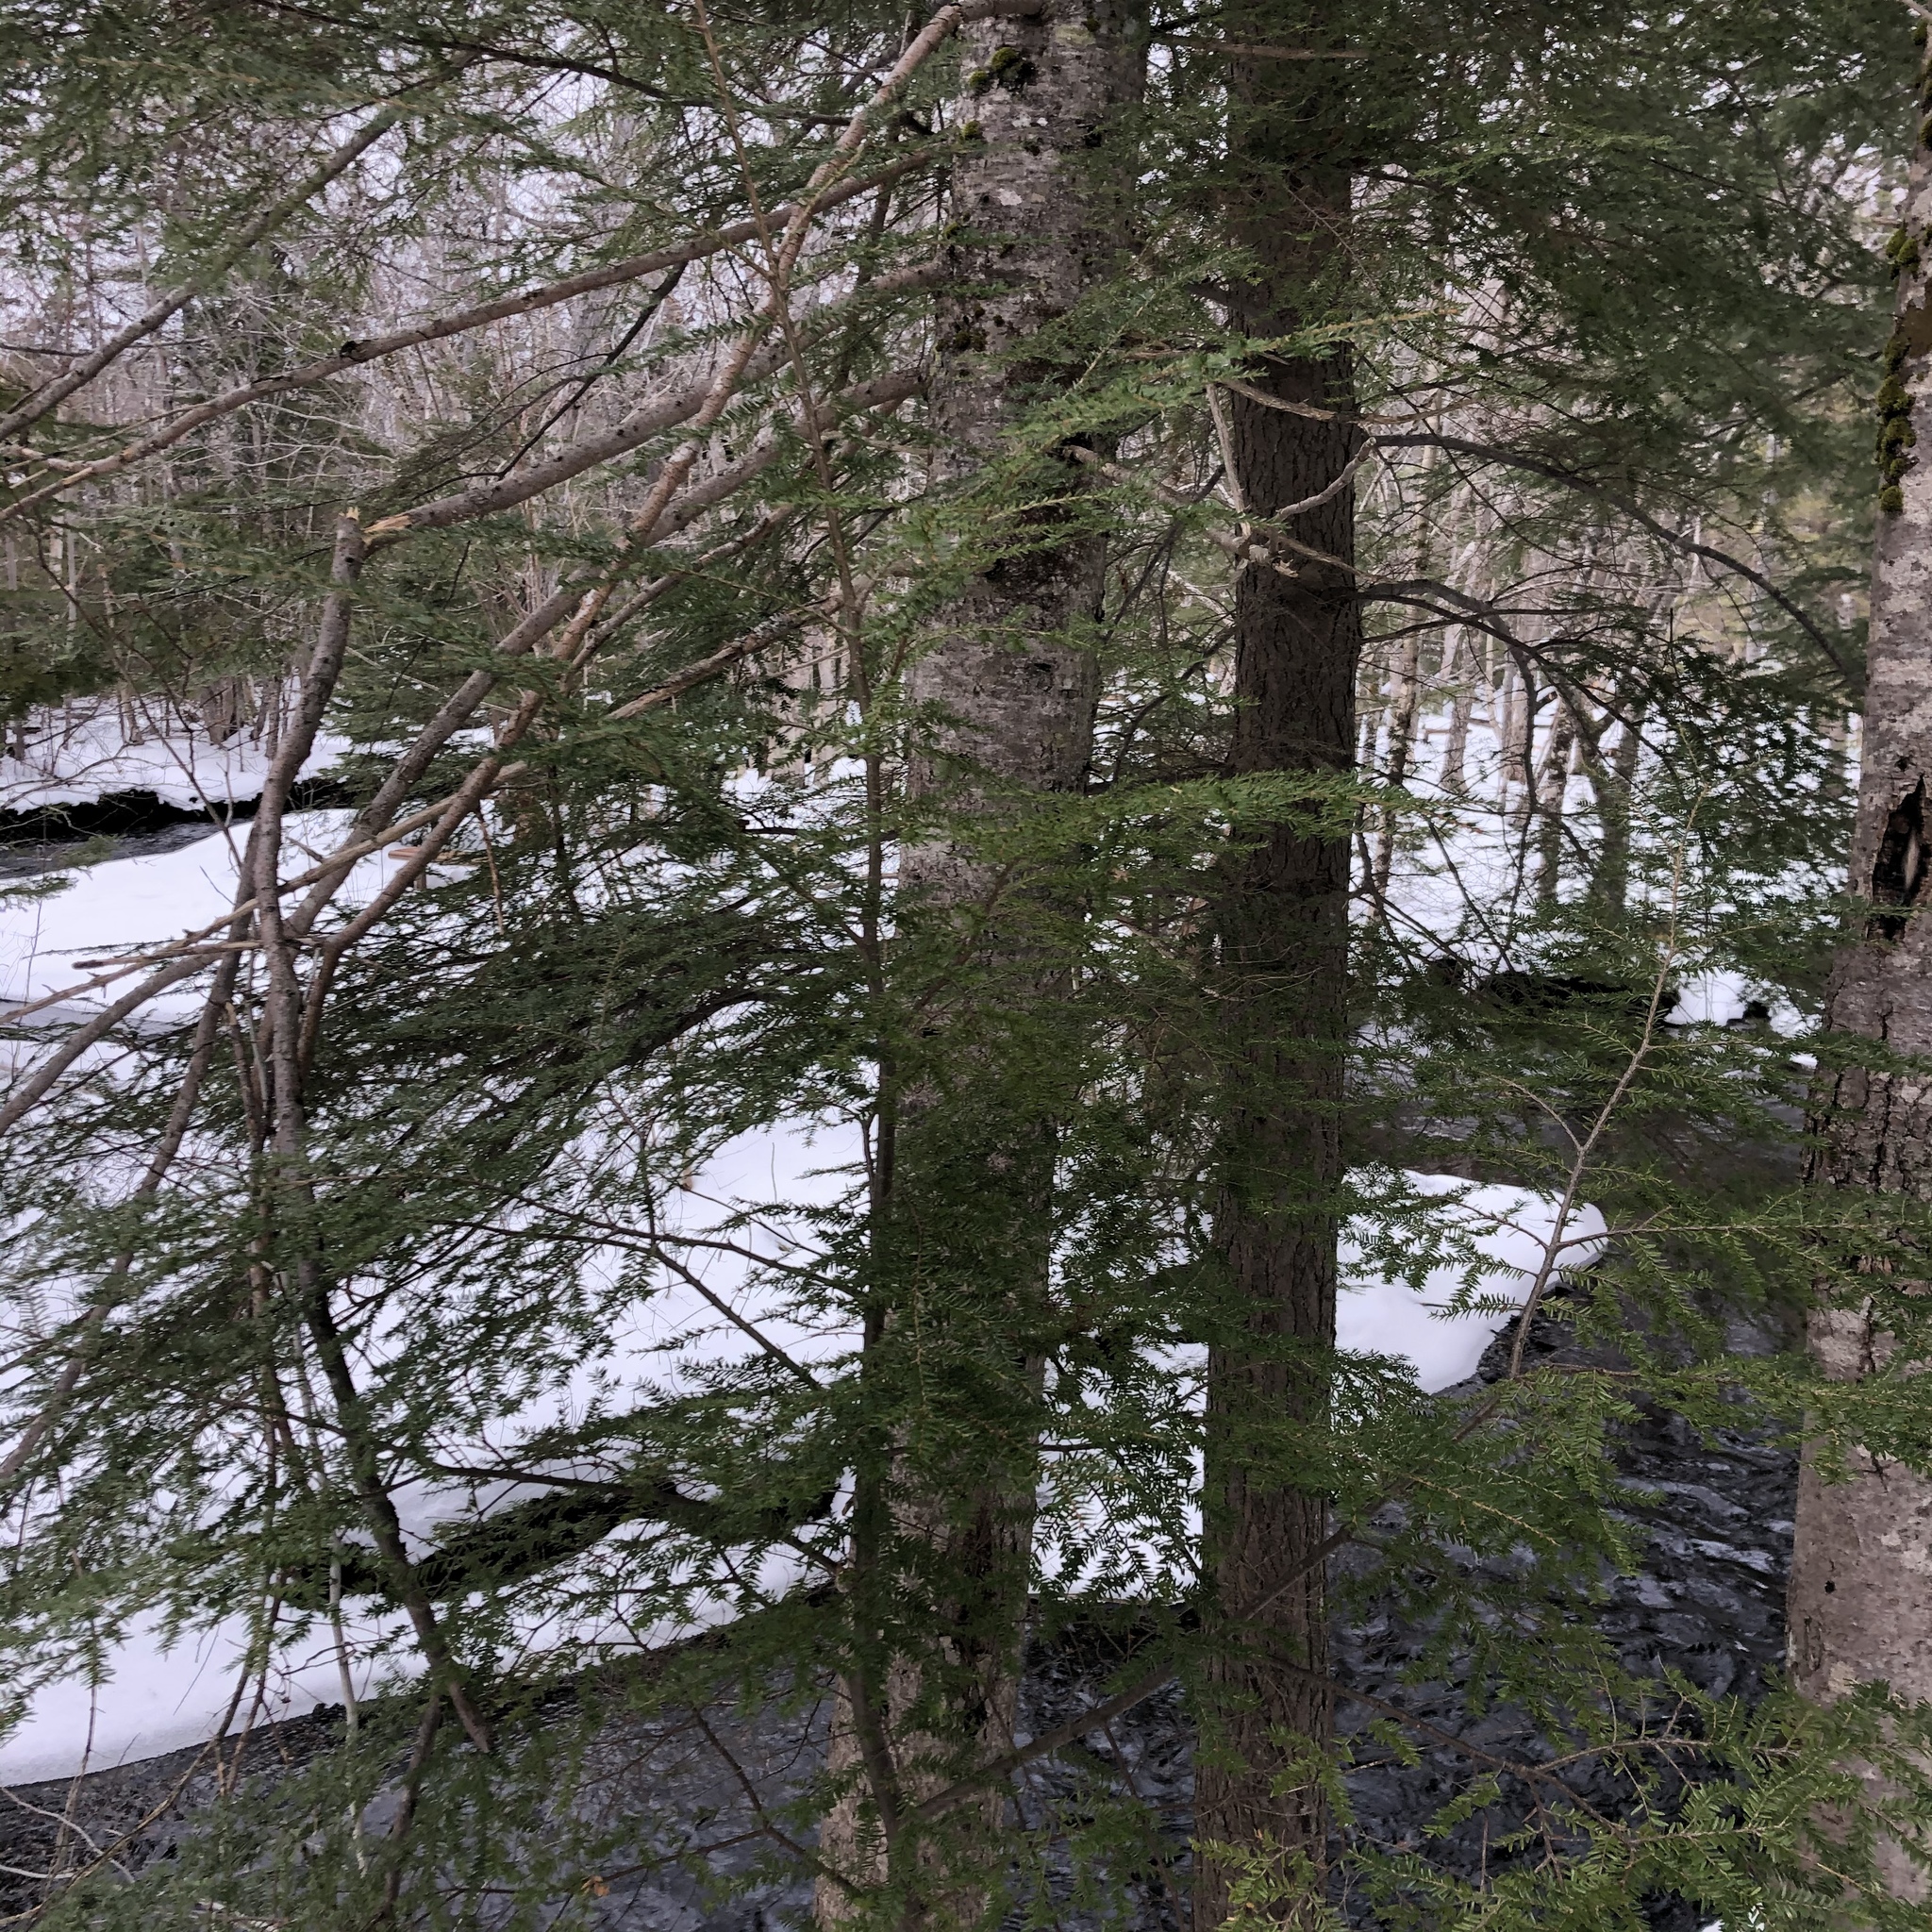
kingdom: Plantae
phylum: Tracheophyta
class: Pinopsida
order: Pinales
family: Pinaceae
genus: Tsuga
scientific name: Tsuga canadensis
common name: Eastern hemlock
